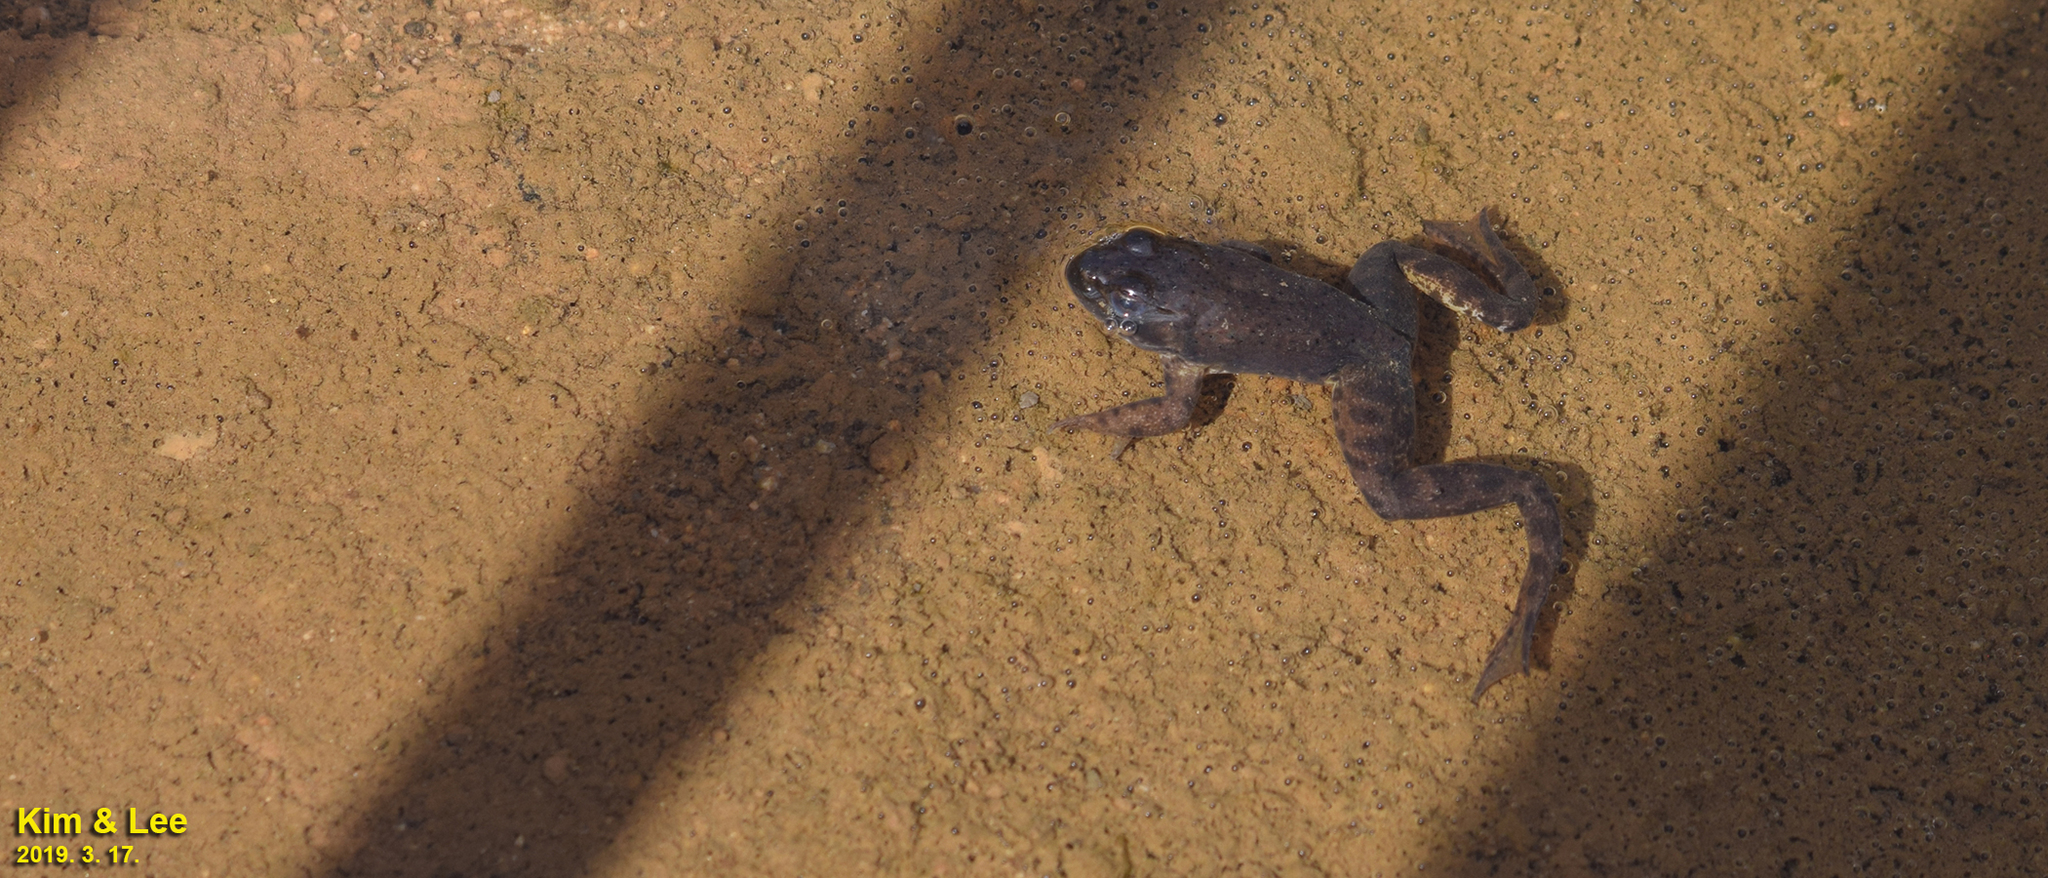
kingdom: Animalia
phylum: Chordata
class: Amphibia
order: Anura
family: Ranidae
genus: Lithobates
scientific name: Lithobates catesbeianus
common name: American bullfrog
